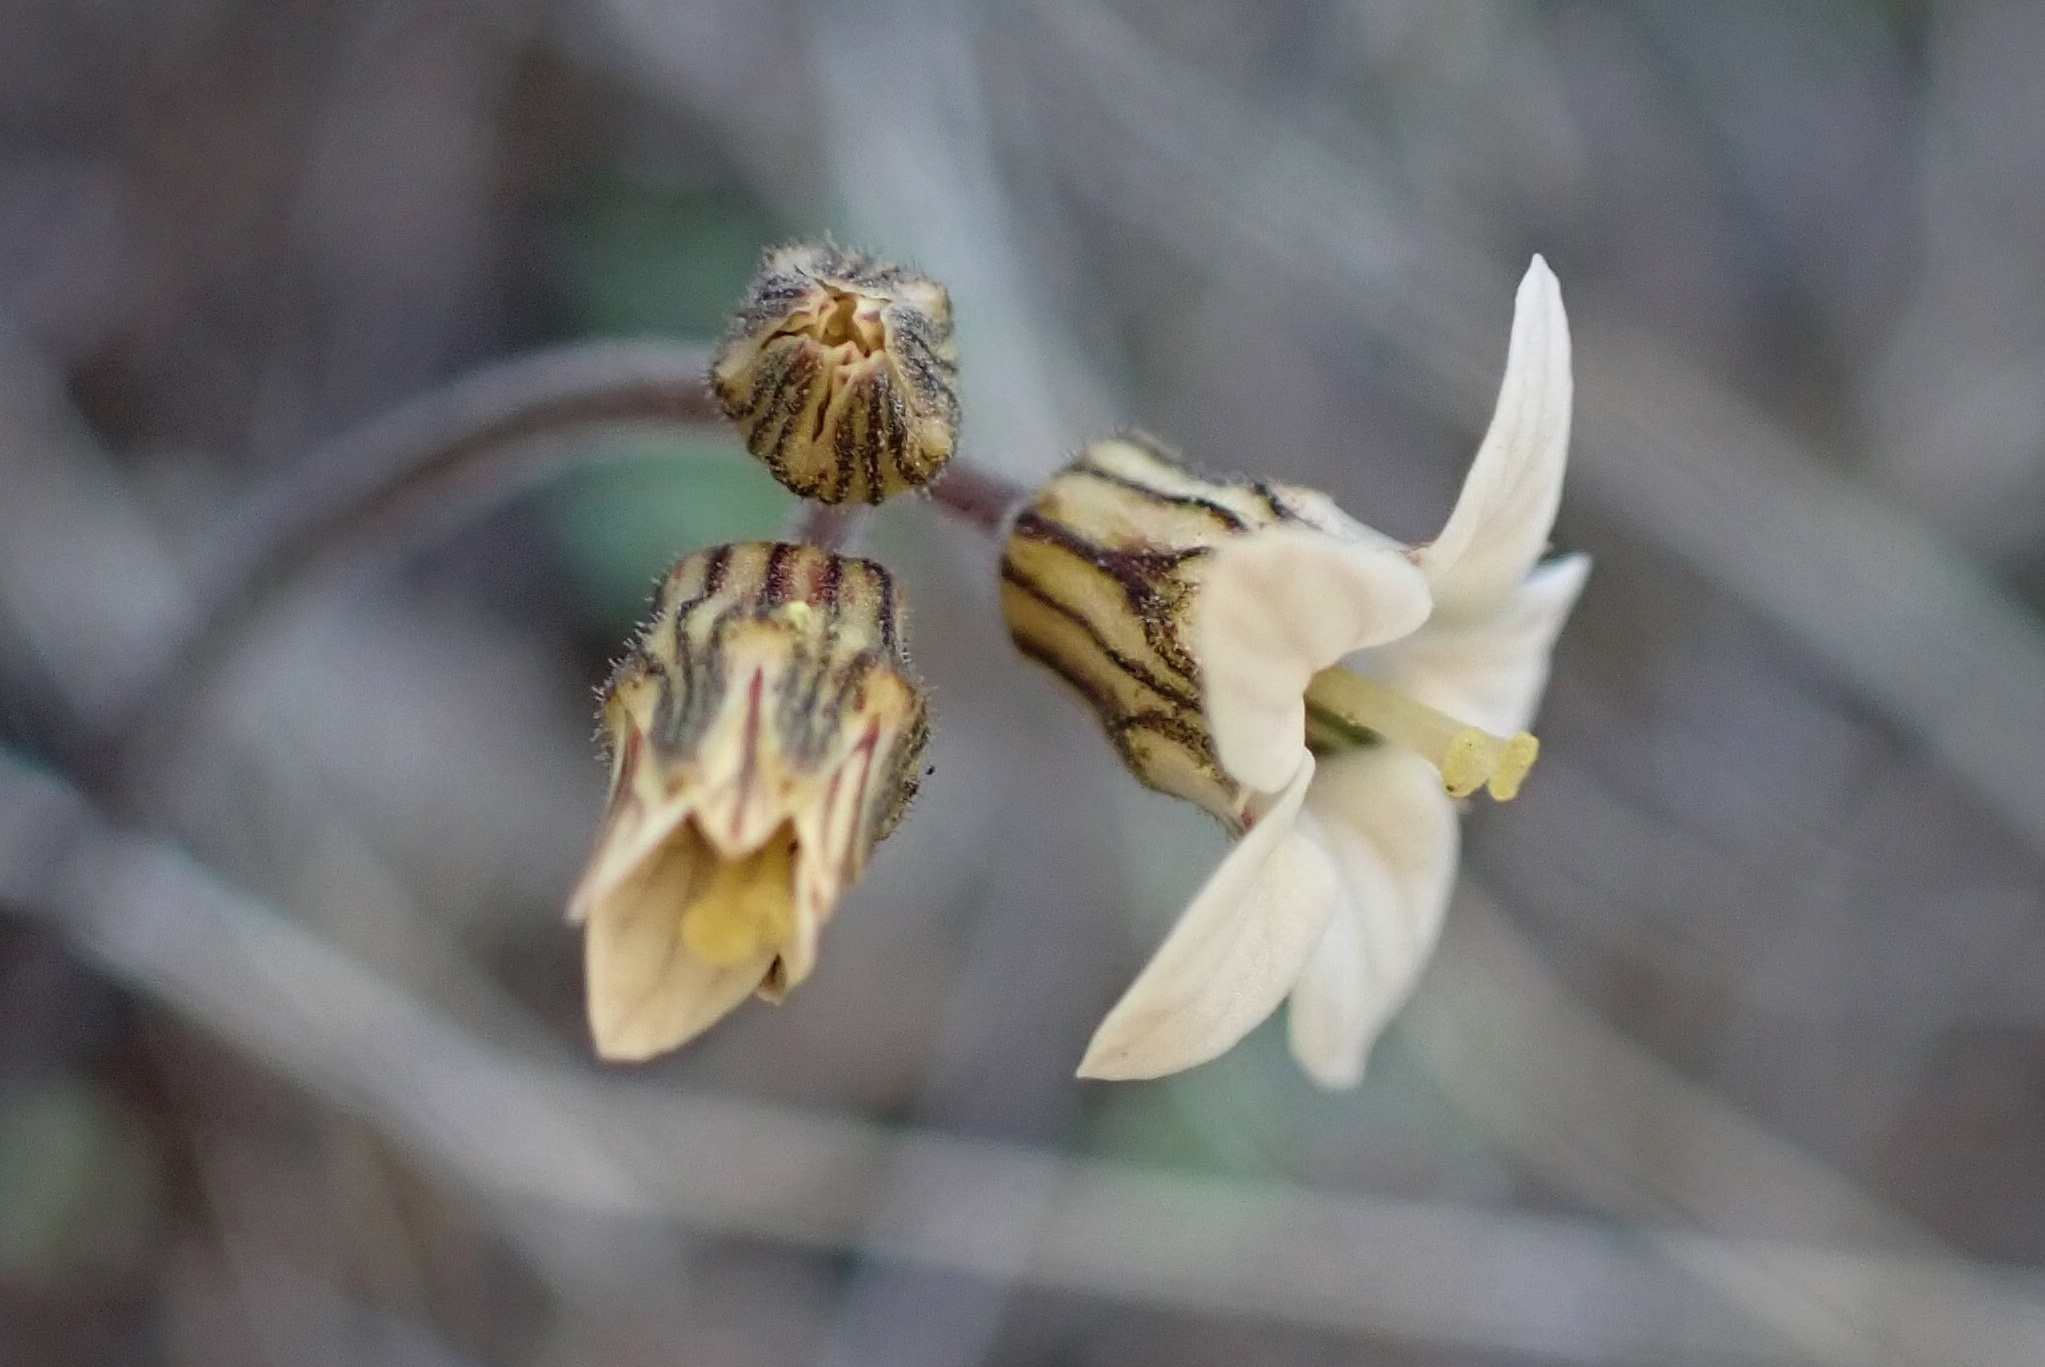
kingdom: Plantae
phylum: Tracheophyta
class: Magnoliopsida
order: Saxifragales
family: Saxifragaceae
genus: Jepsonia
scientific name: Jepsonia parryi
